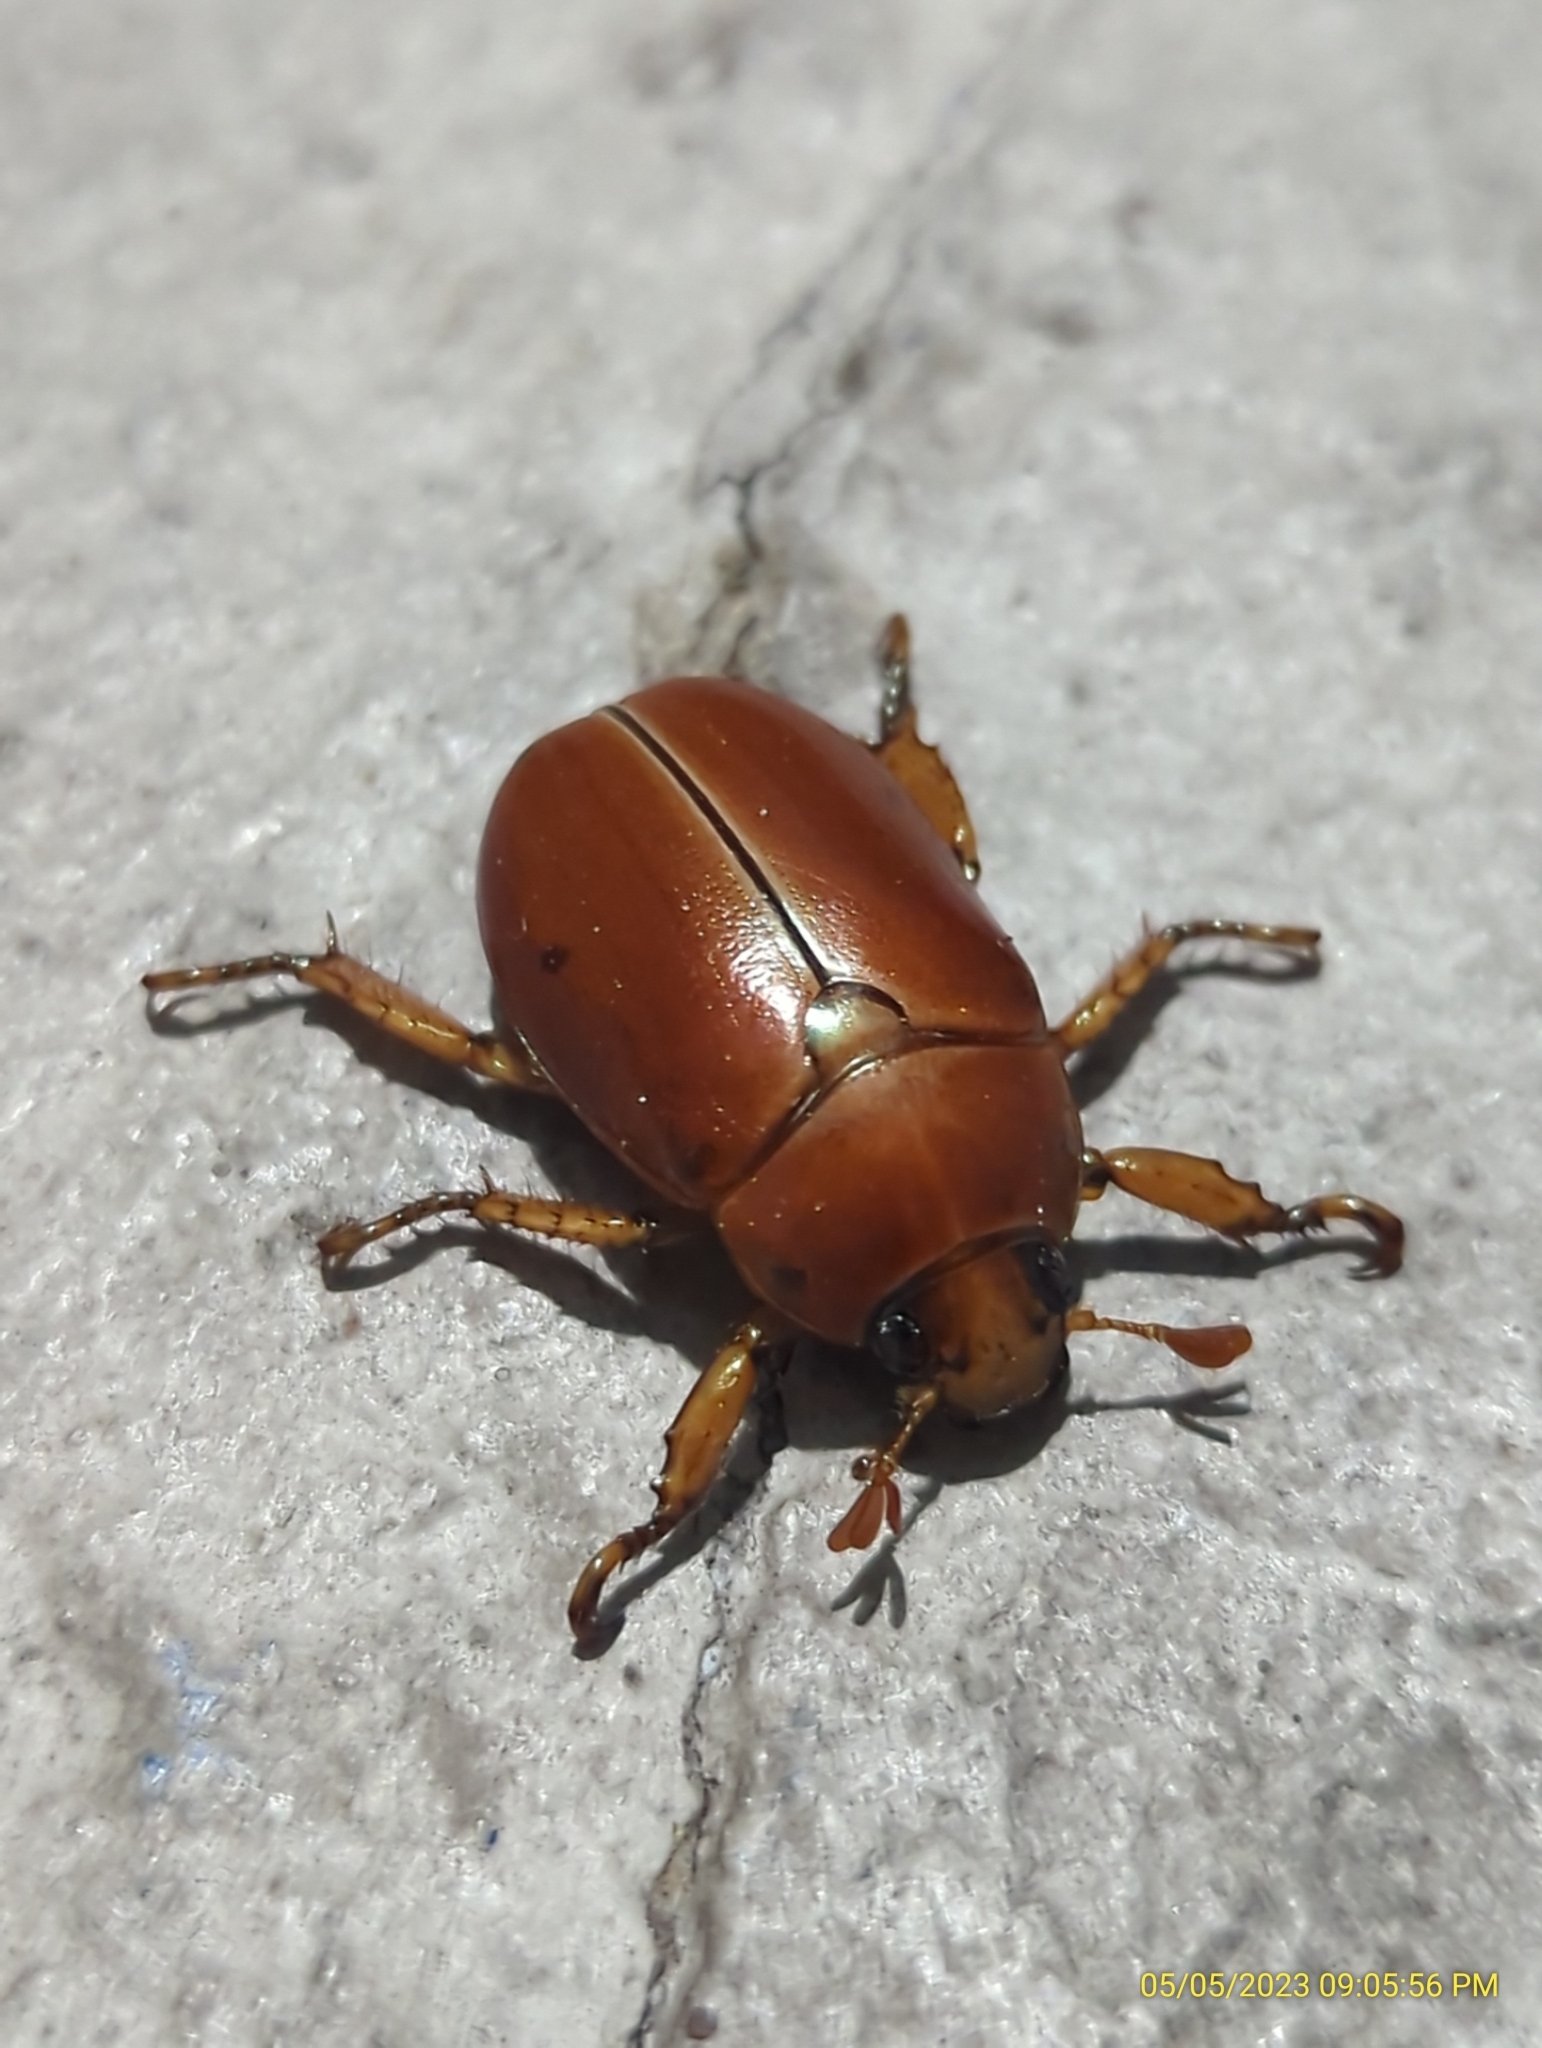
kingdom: Animalia
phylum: Arthropoda
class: Insecta
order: Coleoptera
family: Scarabaeidae
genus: Pelidnota
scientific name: Pelidnota punctata
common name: Grapevine beetle
